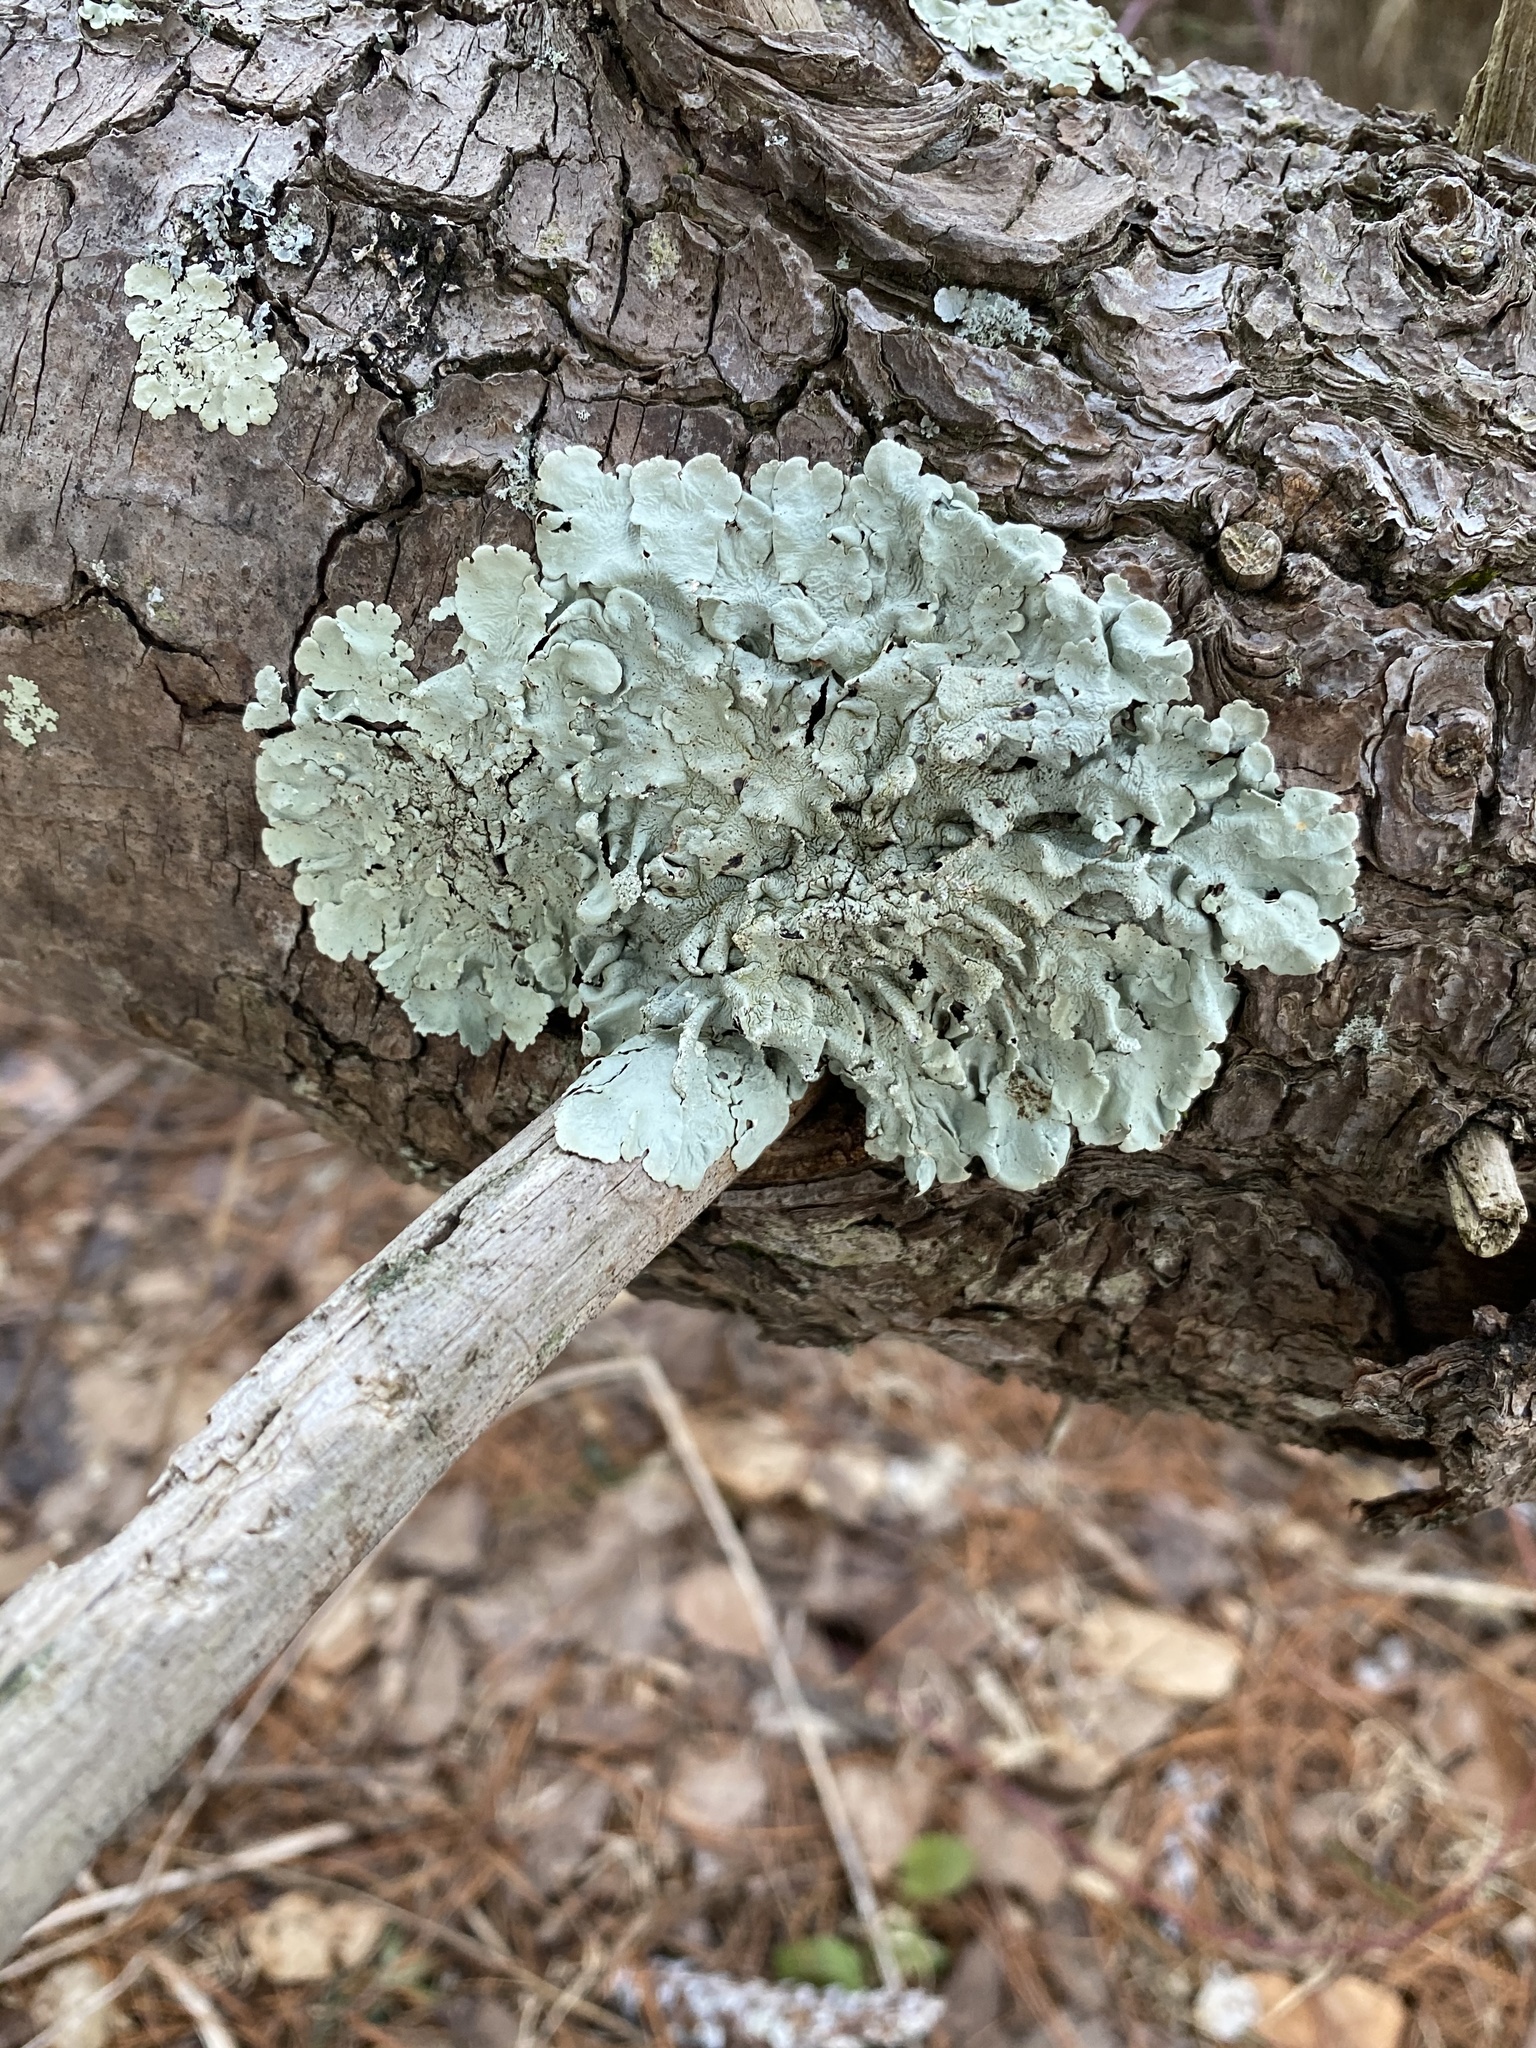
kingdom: Fungi
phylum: Ascomycota
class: Lecanoromycetes
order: Lecanorales
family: Parmeliaceae
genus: Flavoparmelia
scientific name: Flavoparmelia caperata
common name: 40-mile per hour lichen
